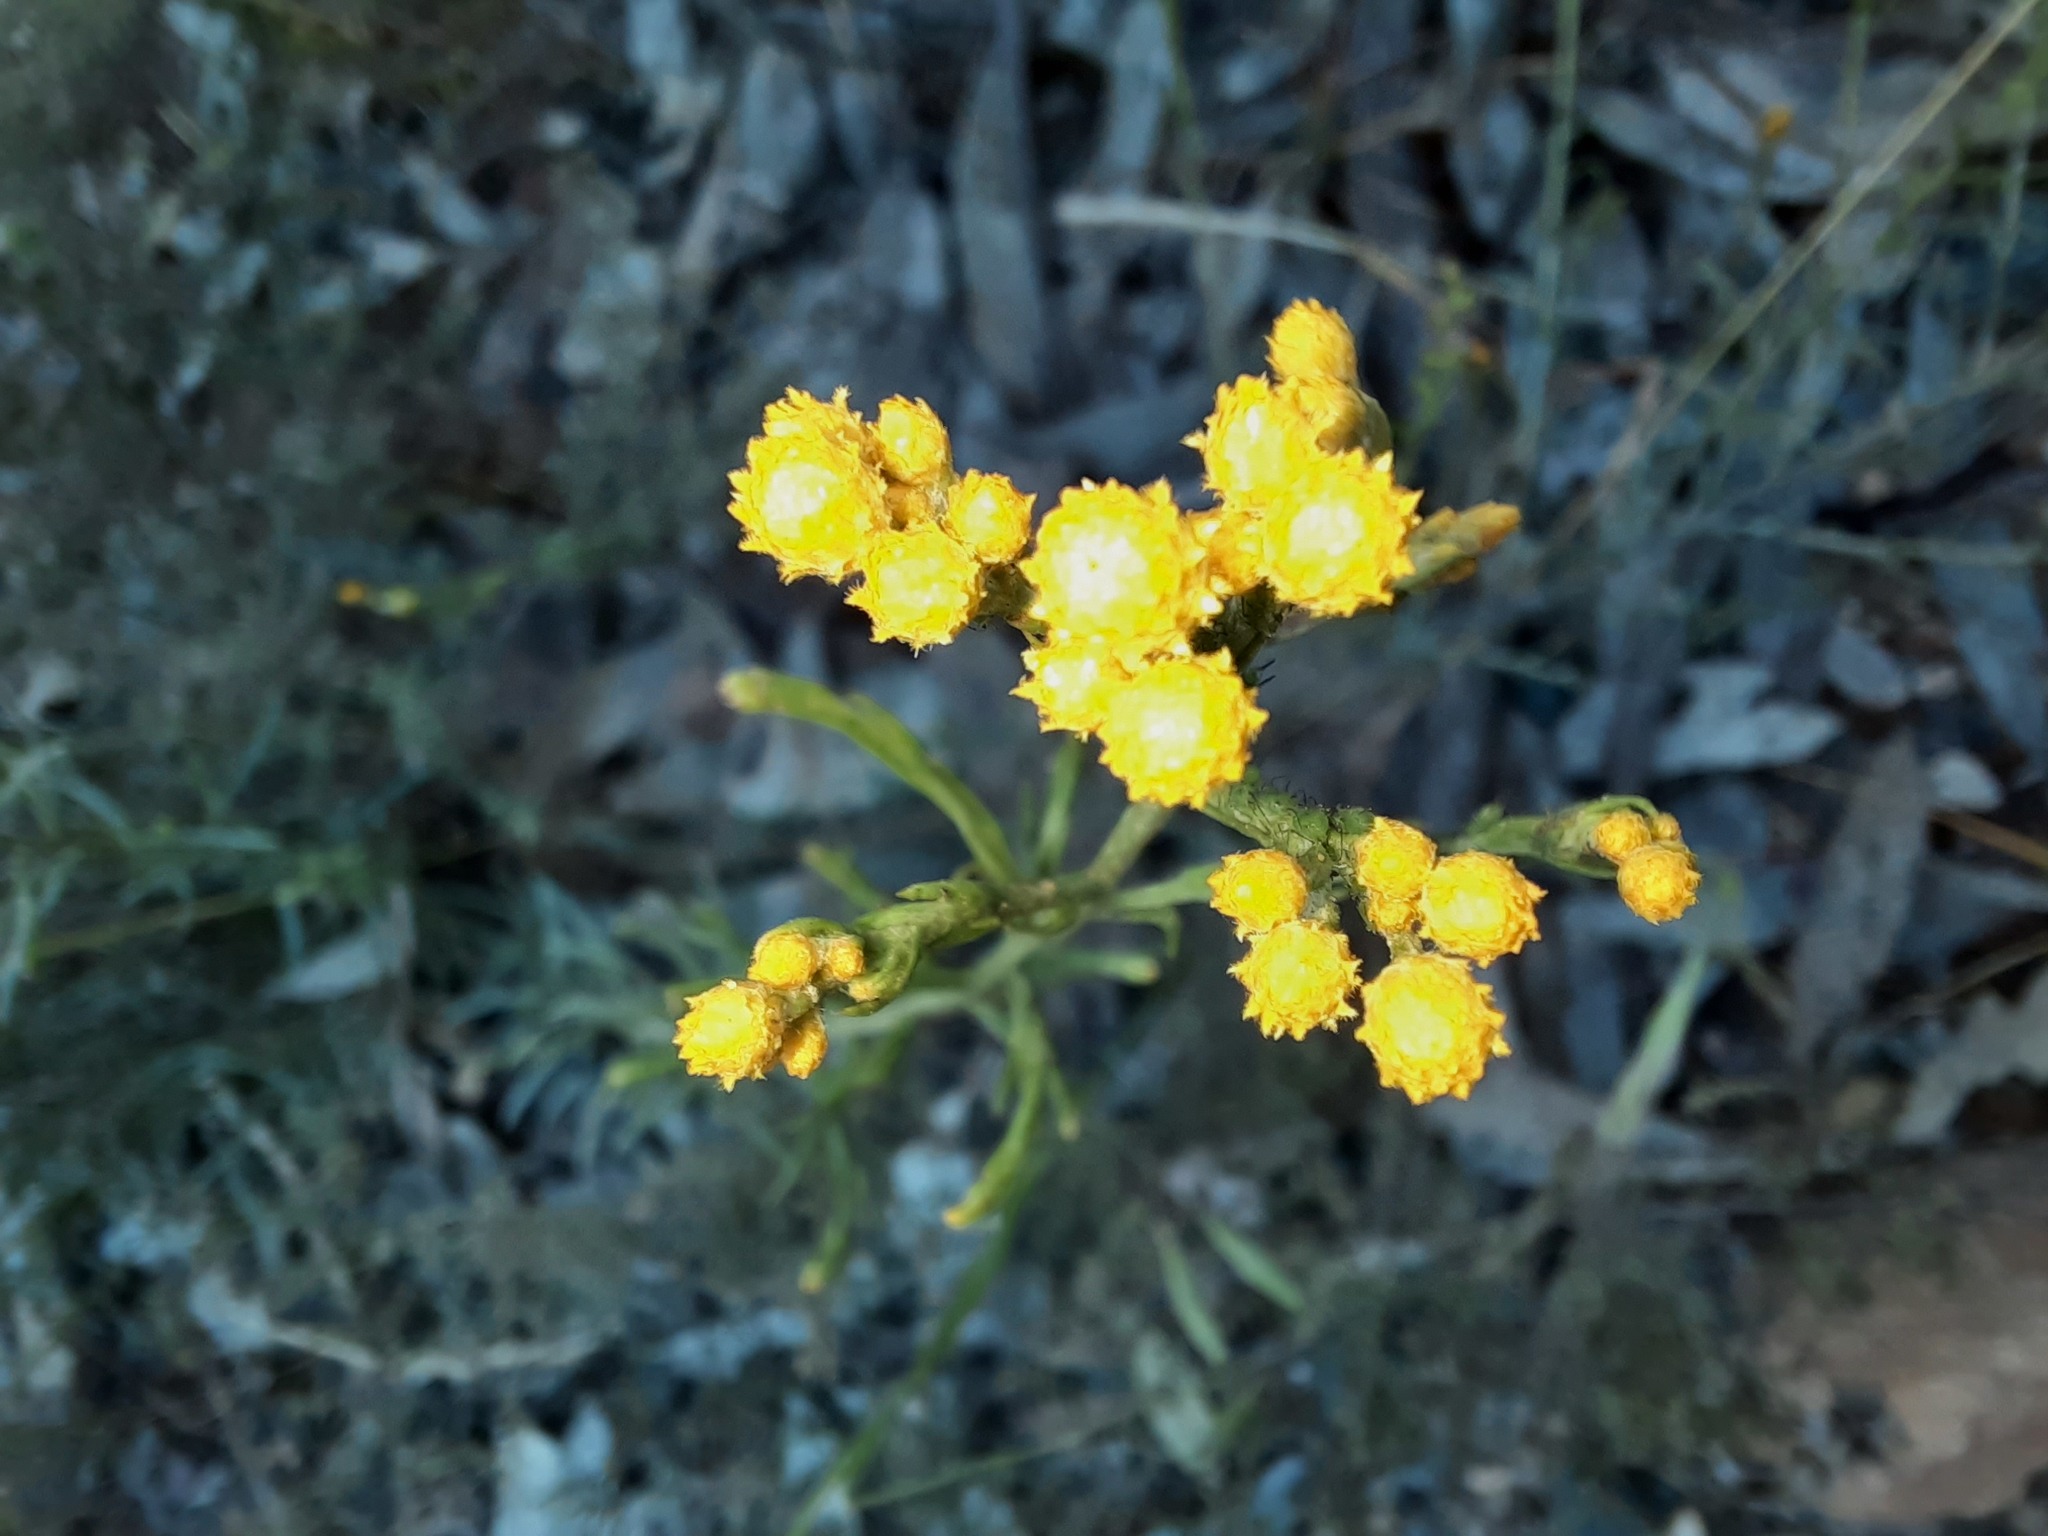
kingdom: Plantae
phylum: Tracheophyta
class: Magnoliopsida
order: Asterales
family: Asteraceae
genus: Chrysocephalum
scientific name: Chrysocephalum semipapposum
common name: Clustered everlasting
